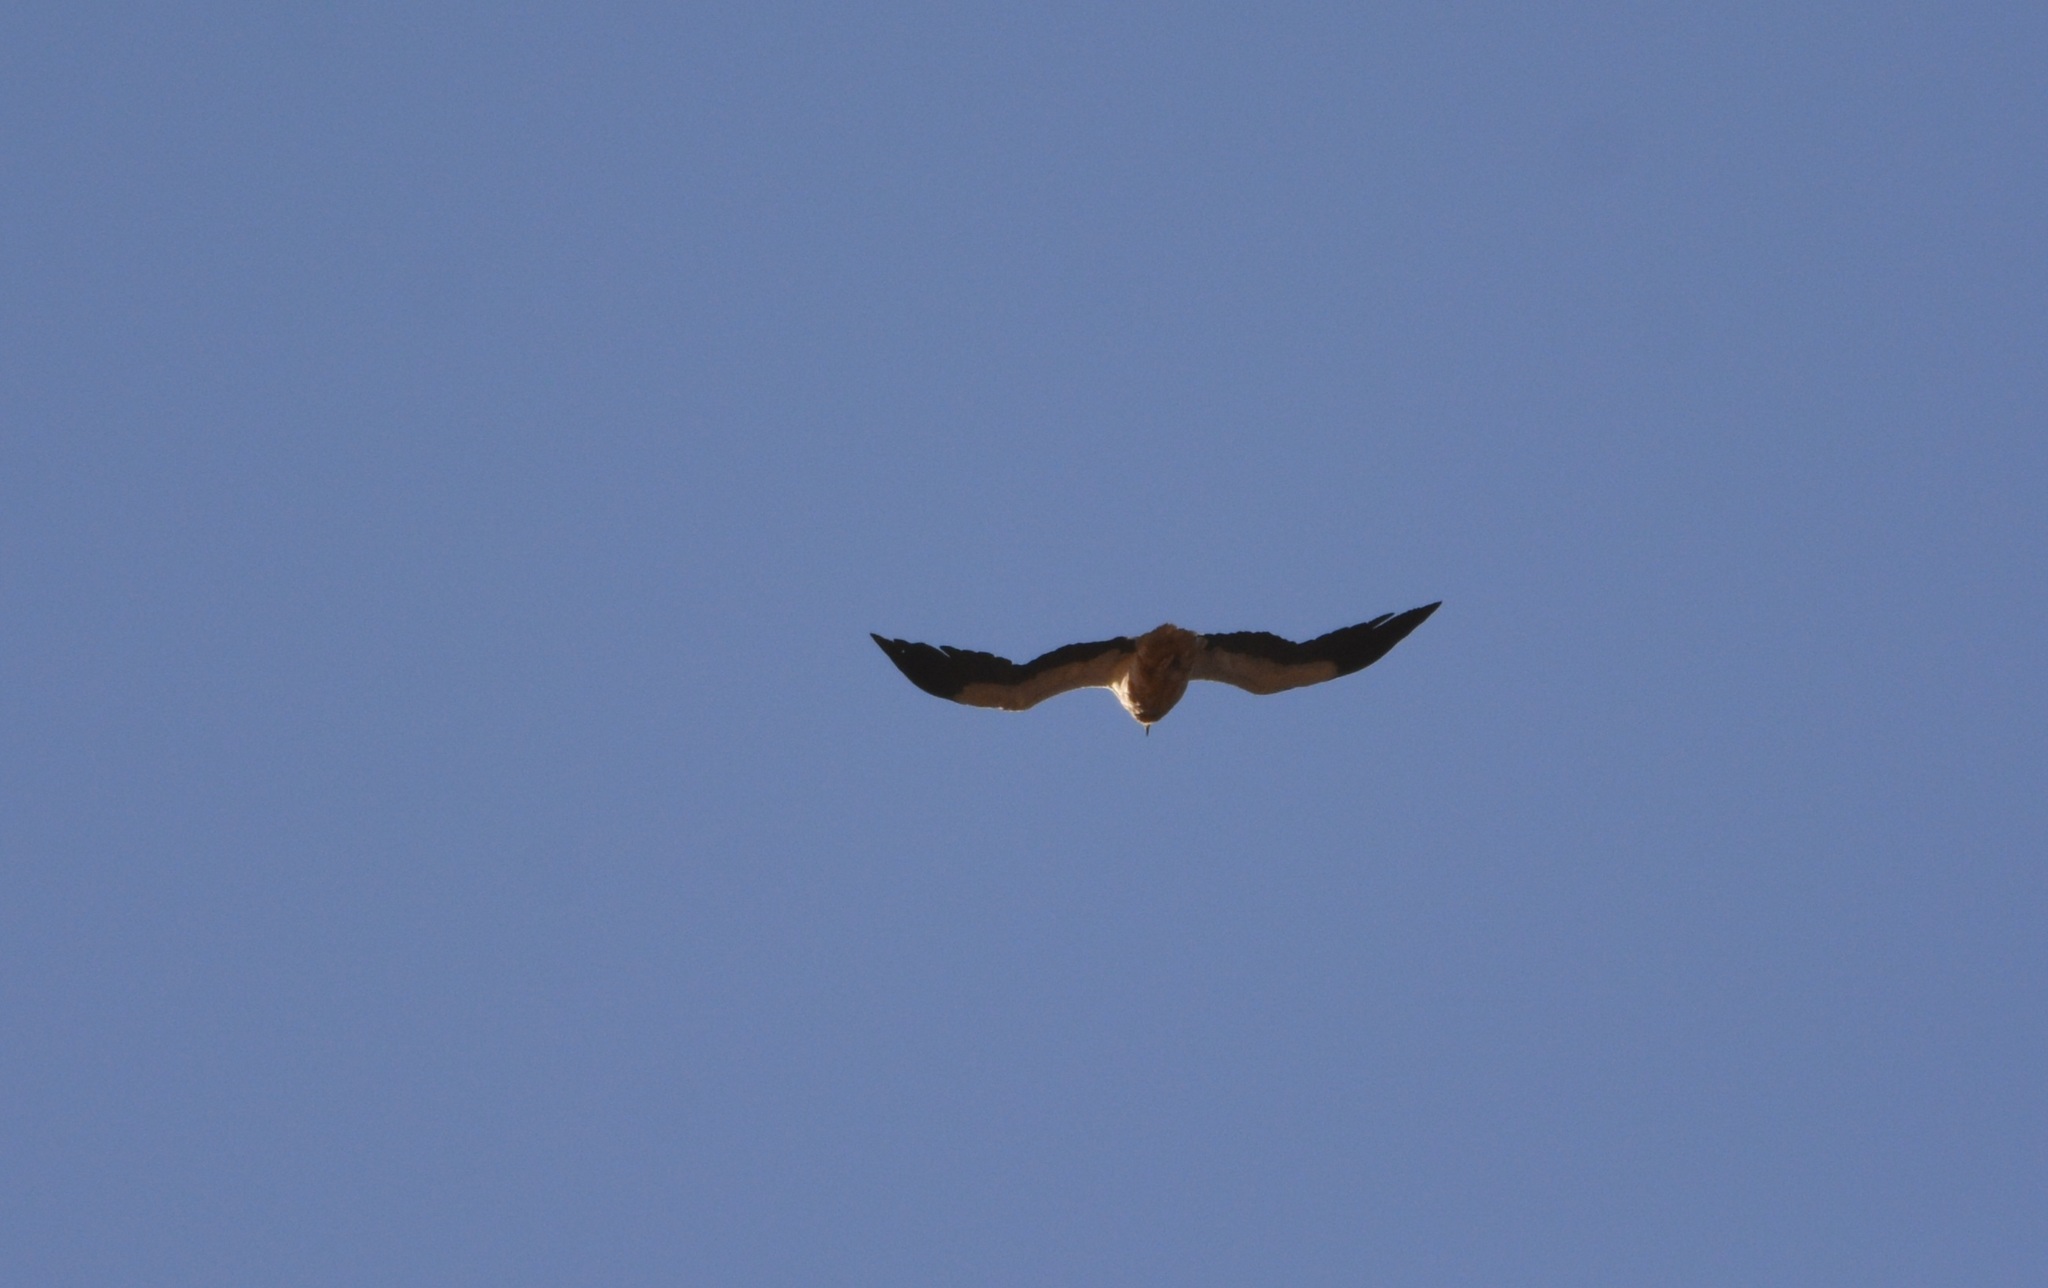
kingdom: Animalia
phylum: Chordata
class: Aves
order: Accipitriformes
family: Accipitridae
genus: Neophron
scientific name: Neophron percnopterus
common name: Egyptian vulture
